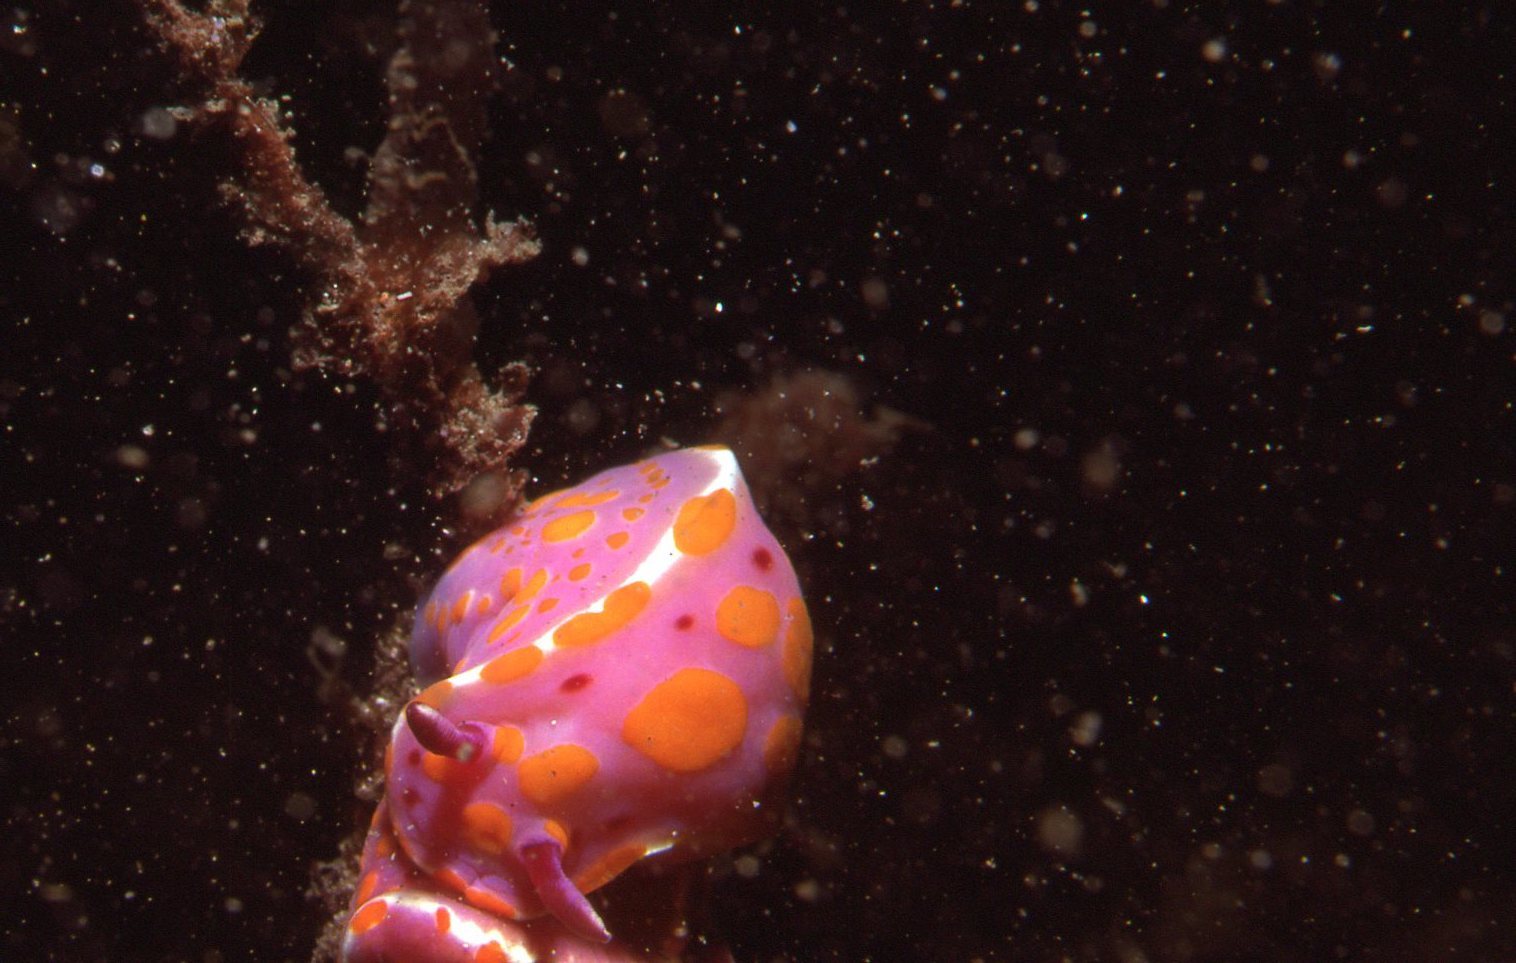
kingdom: Animalia
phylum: Mollusca
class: Gastropoda
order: Nudibranchia
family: Chromodorididae
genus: Ceratosoma
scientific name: Ceratosoma amoenum
